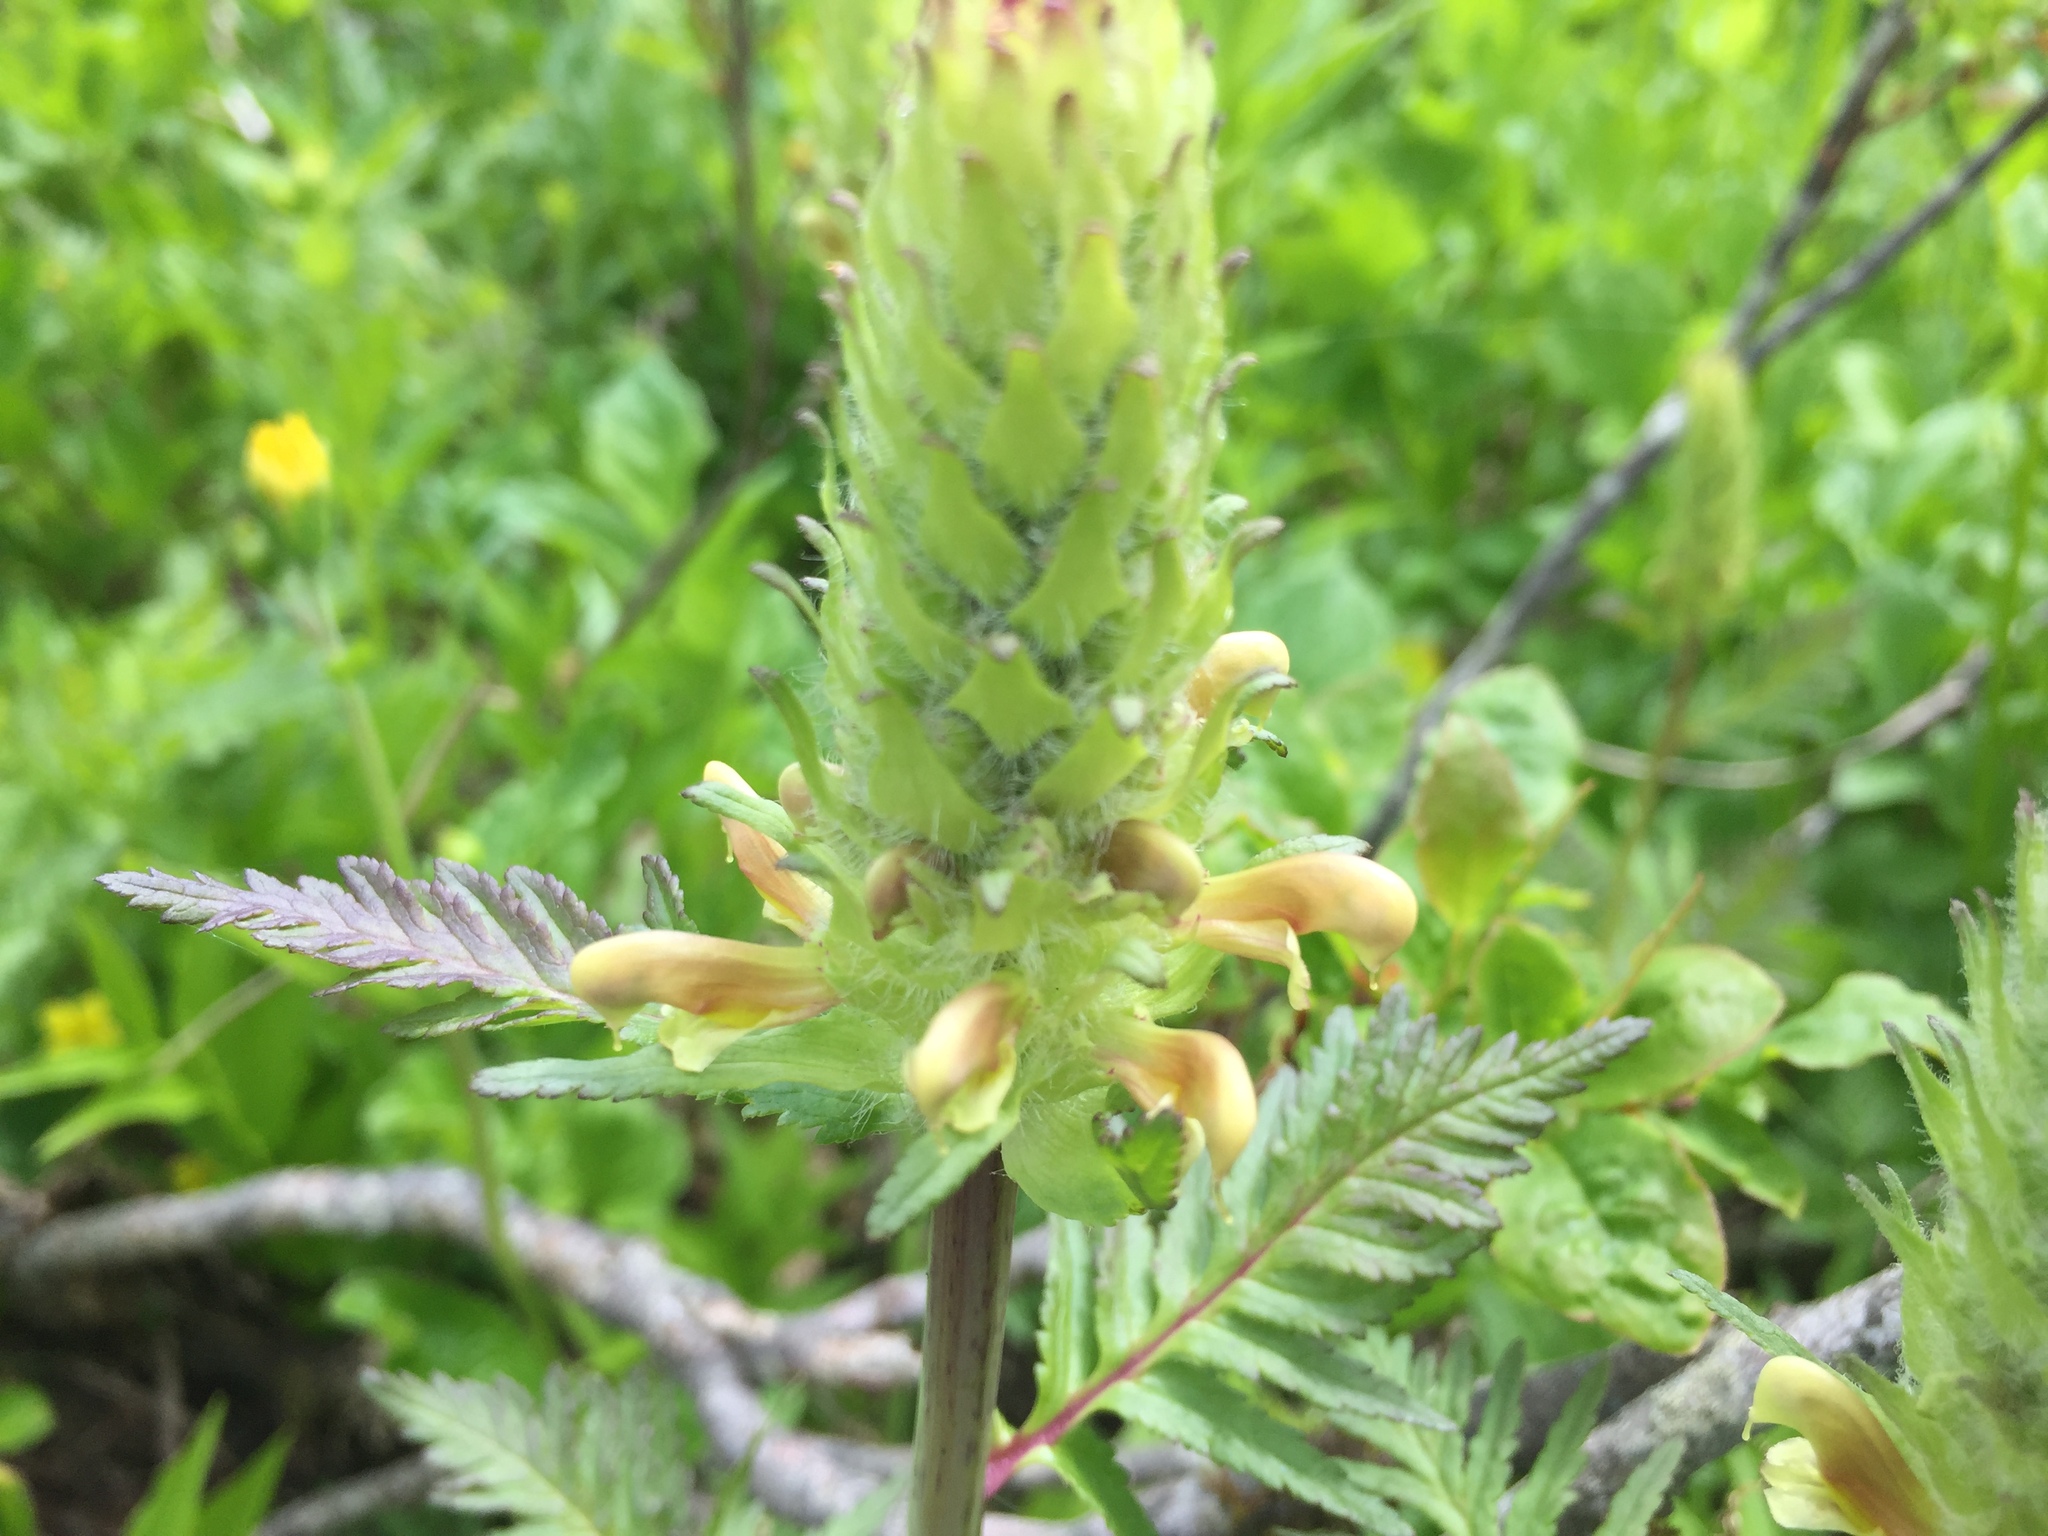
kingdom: Plantae
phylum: Tracheophyta
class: Magnoliopsida
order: Lamiales
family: Orobanchaceae
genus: Pedicularis
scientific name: Pedicularis bracteosa
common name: Bracted lousewort
